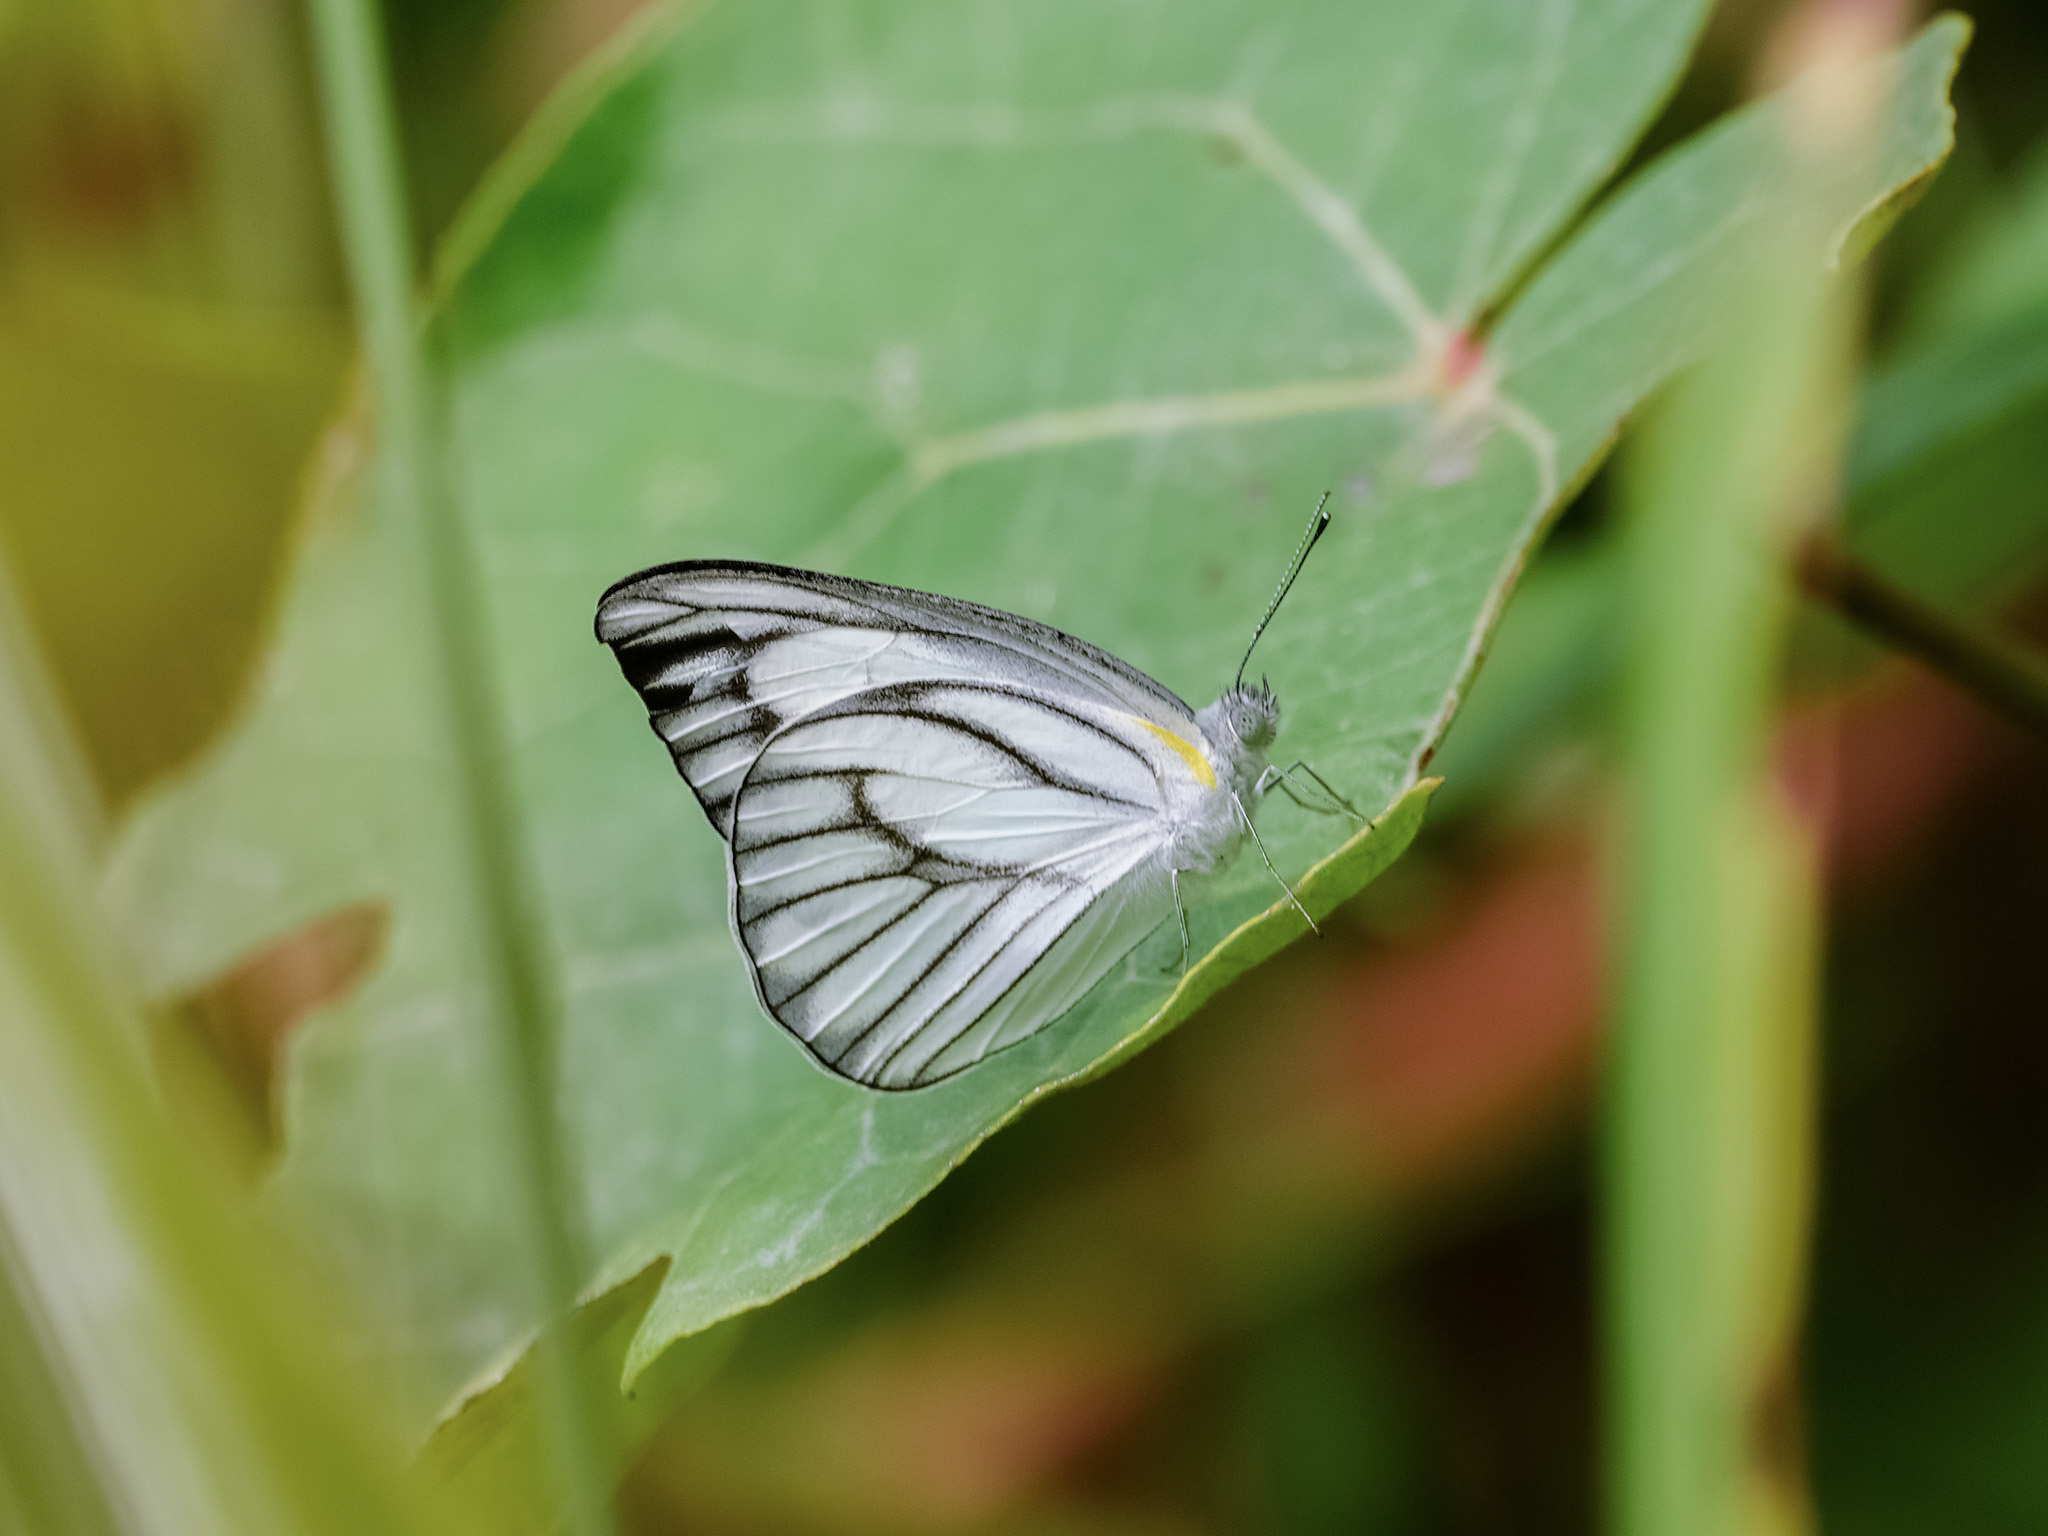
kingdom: Animalia
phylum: Arthropoda
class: Insecta
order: Lepidoptera
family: Pieridae
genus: Appias
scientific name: Appias libythea
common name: Striped albatross
